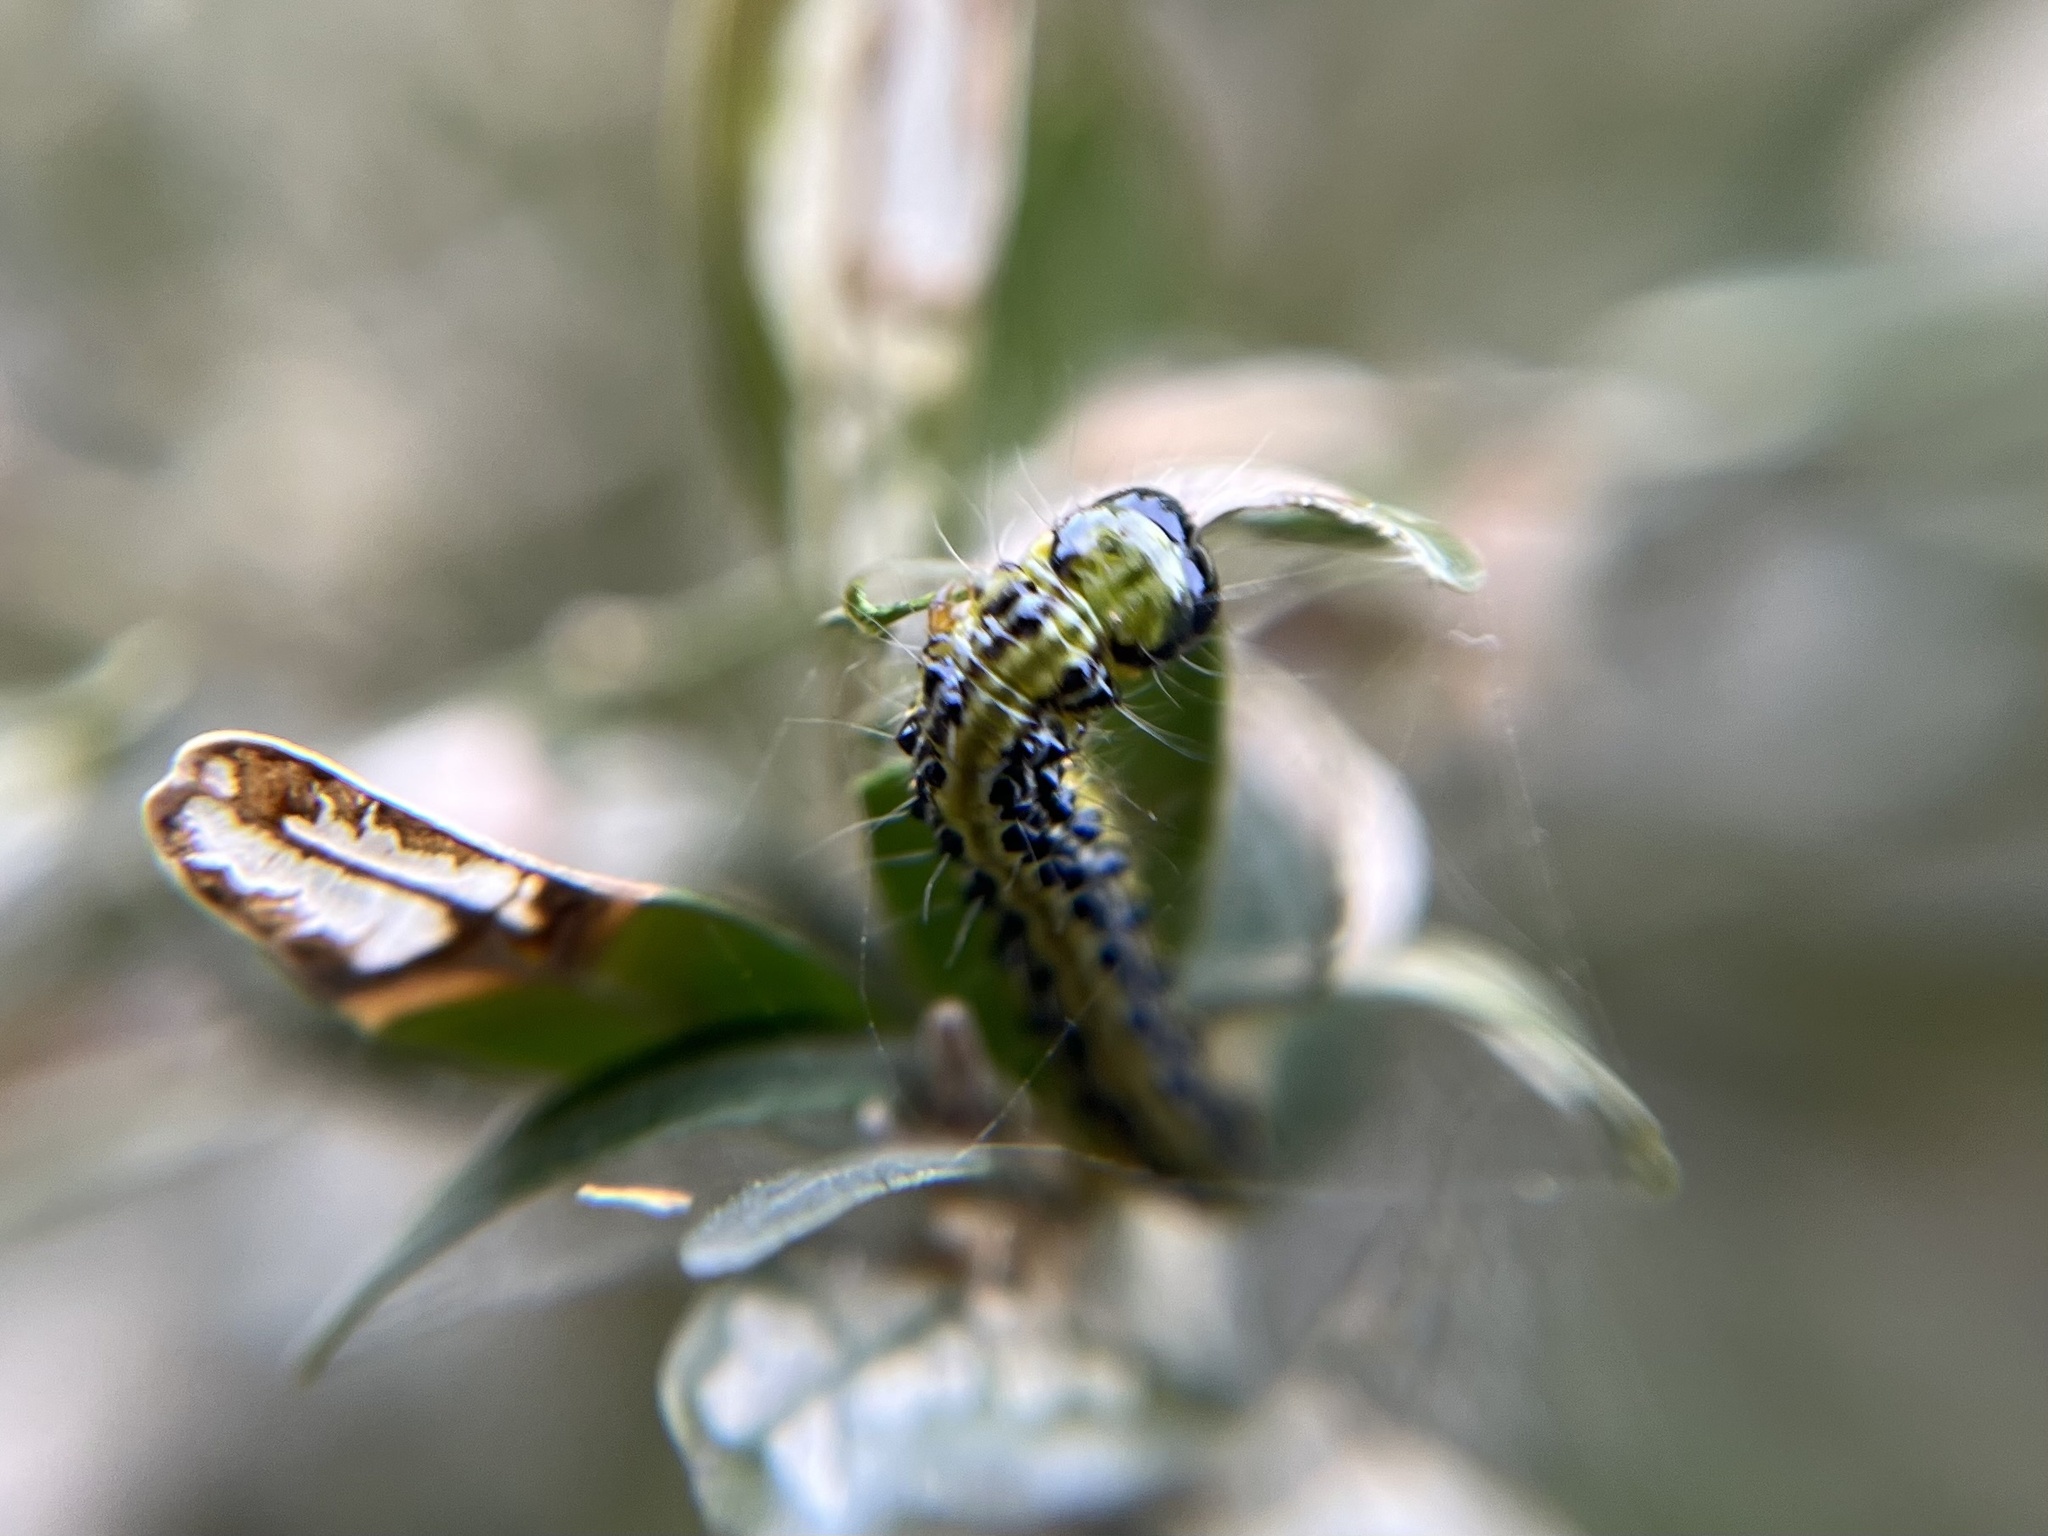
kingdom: Animalia
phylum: Arthropoda
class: Insecta
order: Lepidoptera
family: Crambidae
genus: Cydalima
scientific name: Cydalima perspectalis
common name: Box tree moth
